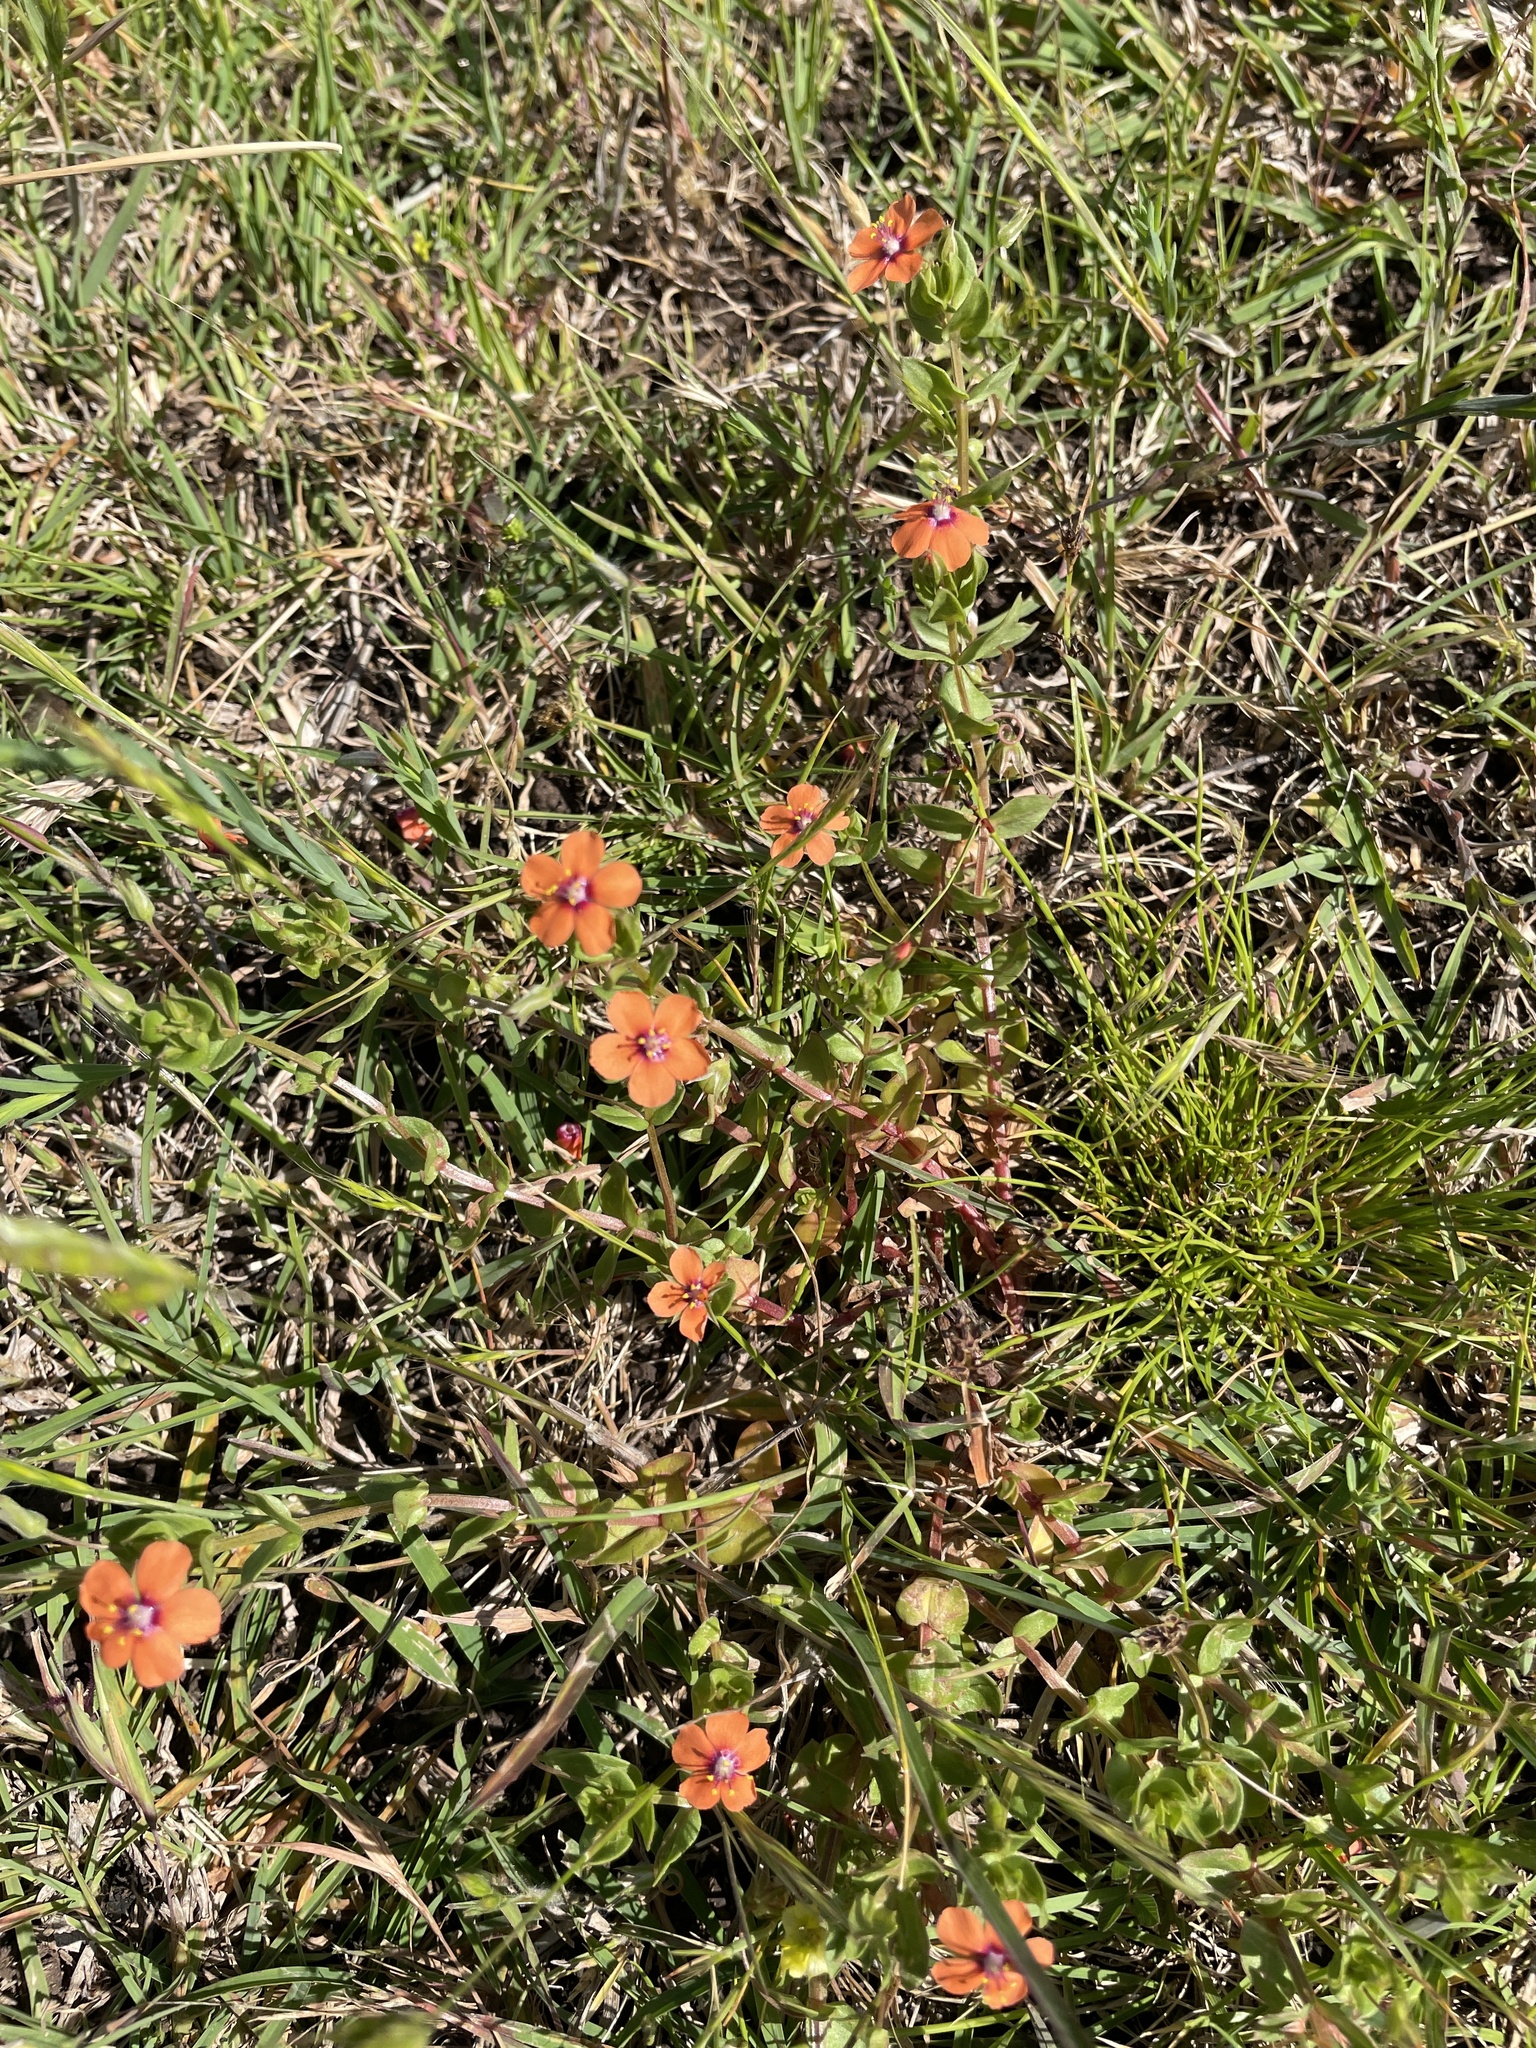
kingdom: Plantae
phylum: Tracheophyta
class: Magnoliopsida
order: Ericales
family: Primulaceae
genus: Lysimachia
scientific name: Lysimachia arvensis
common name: Scarlet pimpernel
